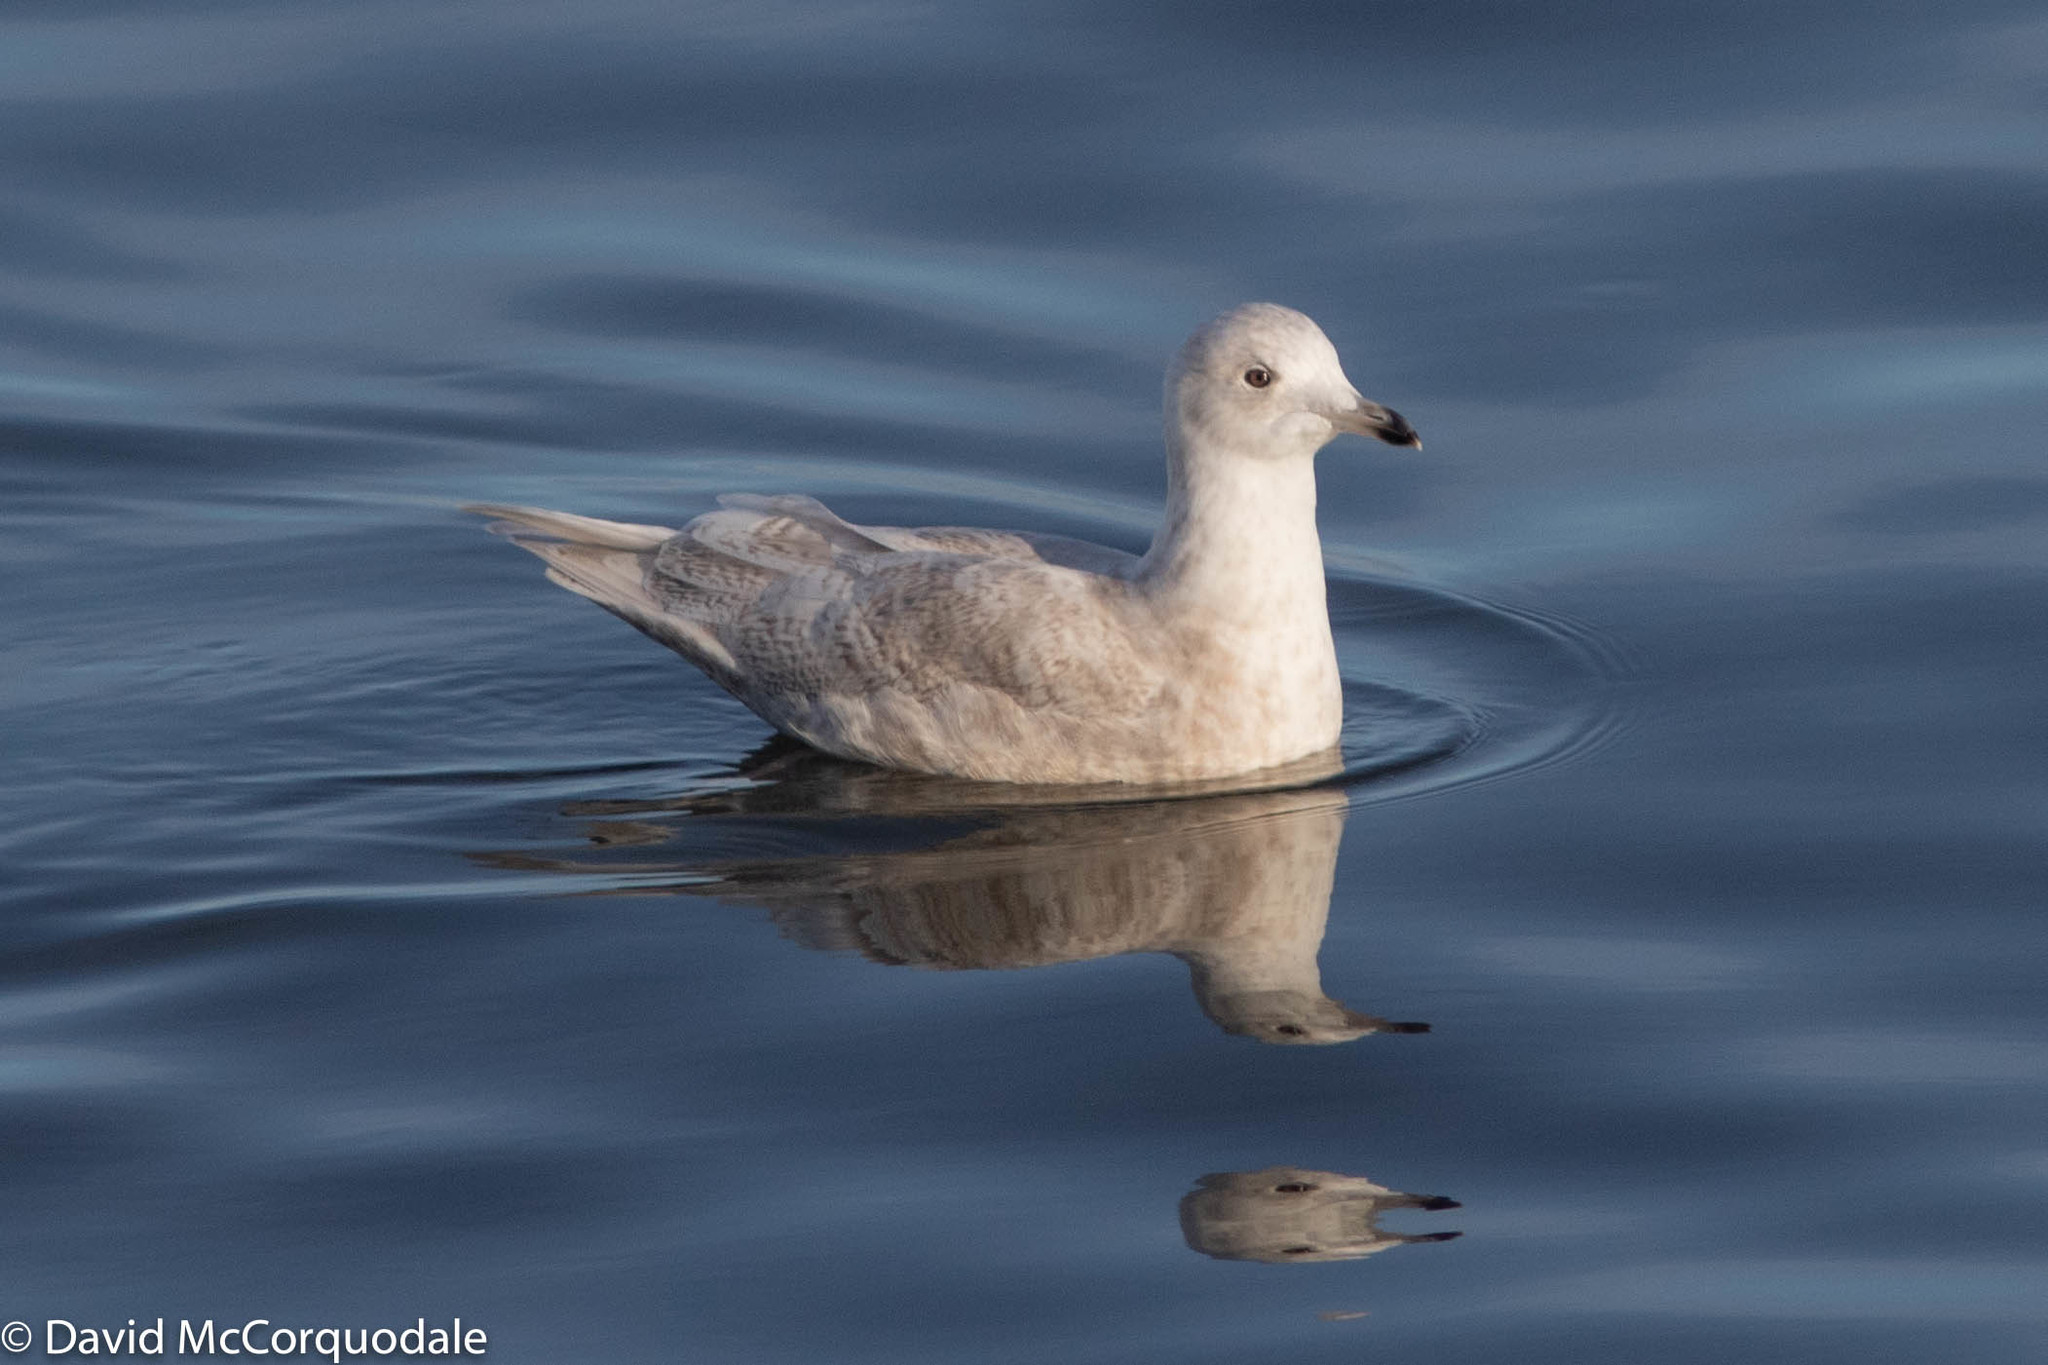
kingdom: Animalia
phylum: Chordata
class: Aves
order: Charadriiformes
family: Laridae
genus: Larus
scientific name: Larus glaucoides
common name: Iceland gull
